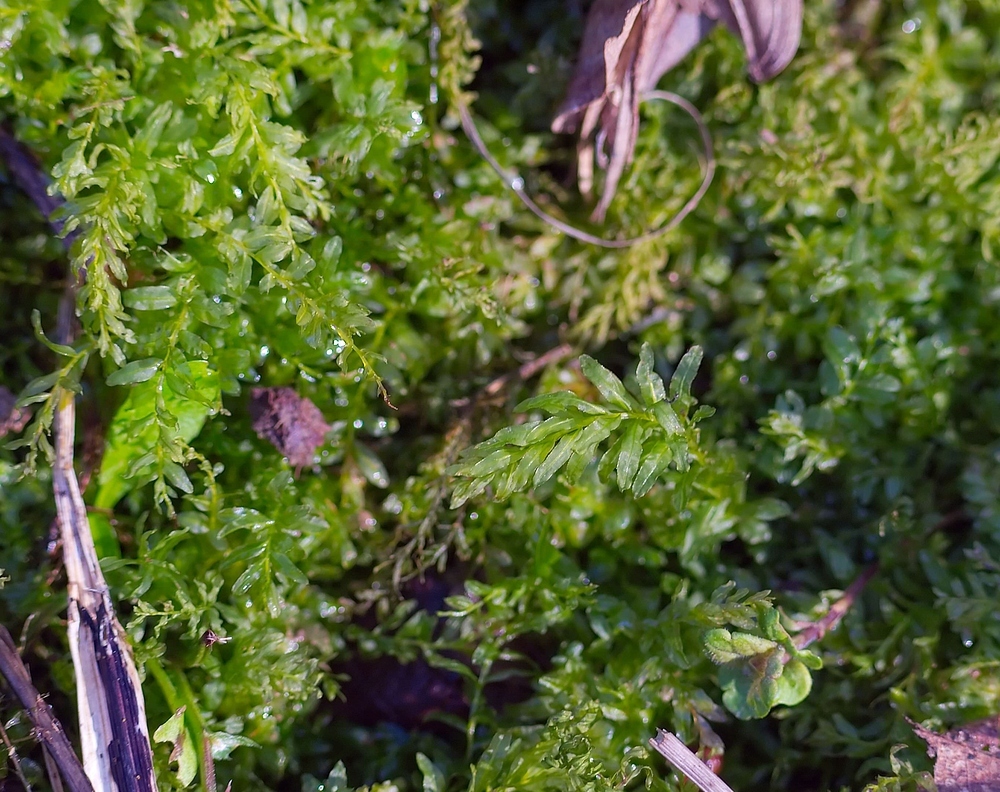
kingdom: Plantae
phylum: Bryophyta
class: Bryopsida
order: Bryales
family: Mniaceae
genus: Plagiomnium
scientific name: Plagiomnium undulatum
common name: Hart's-tongue thyme-moss
